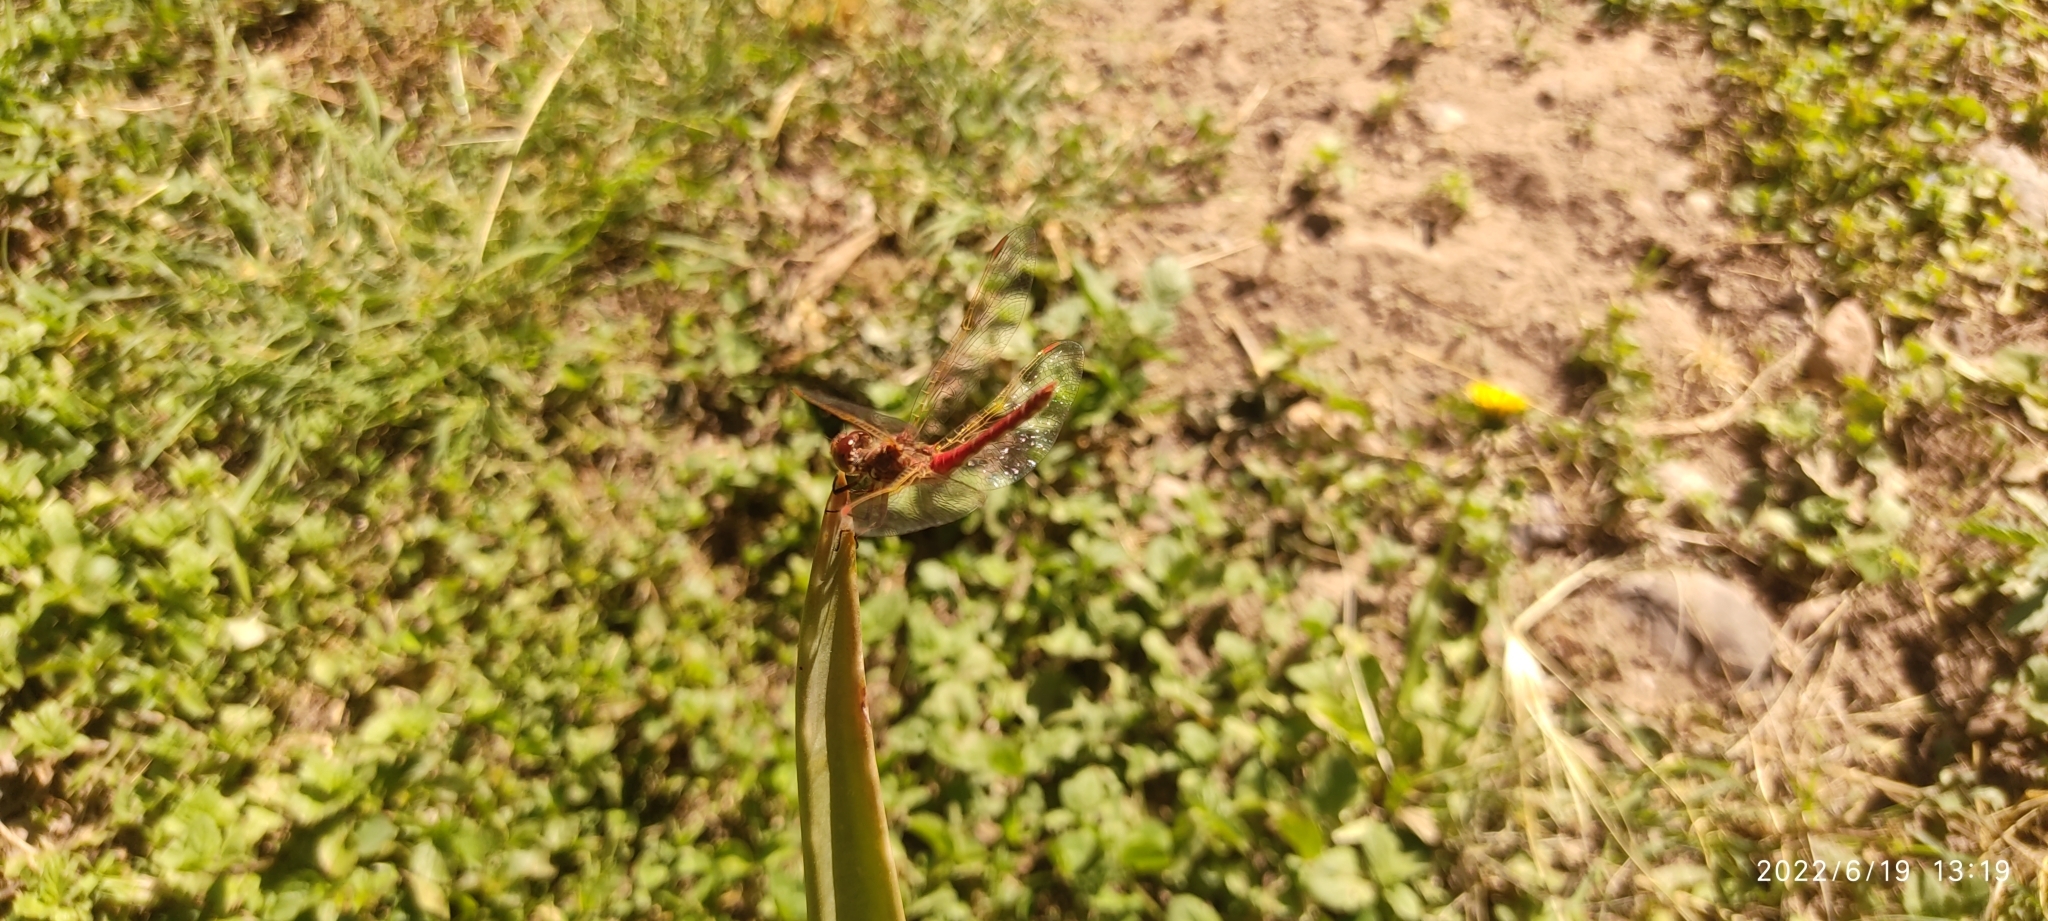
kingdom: Animalia
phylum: Arthropoda
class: Insecta
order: Odonata
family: Libellulidae
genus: Sympetrum
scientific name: Sympetrum gilvum
